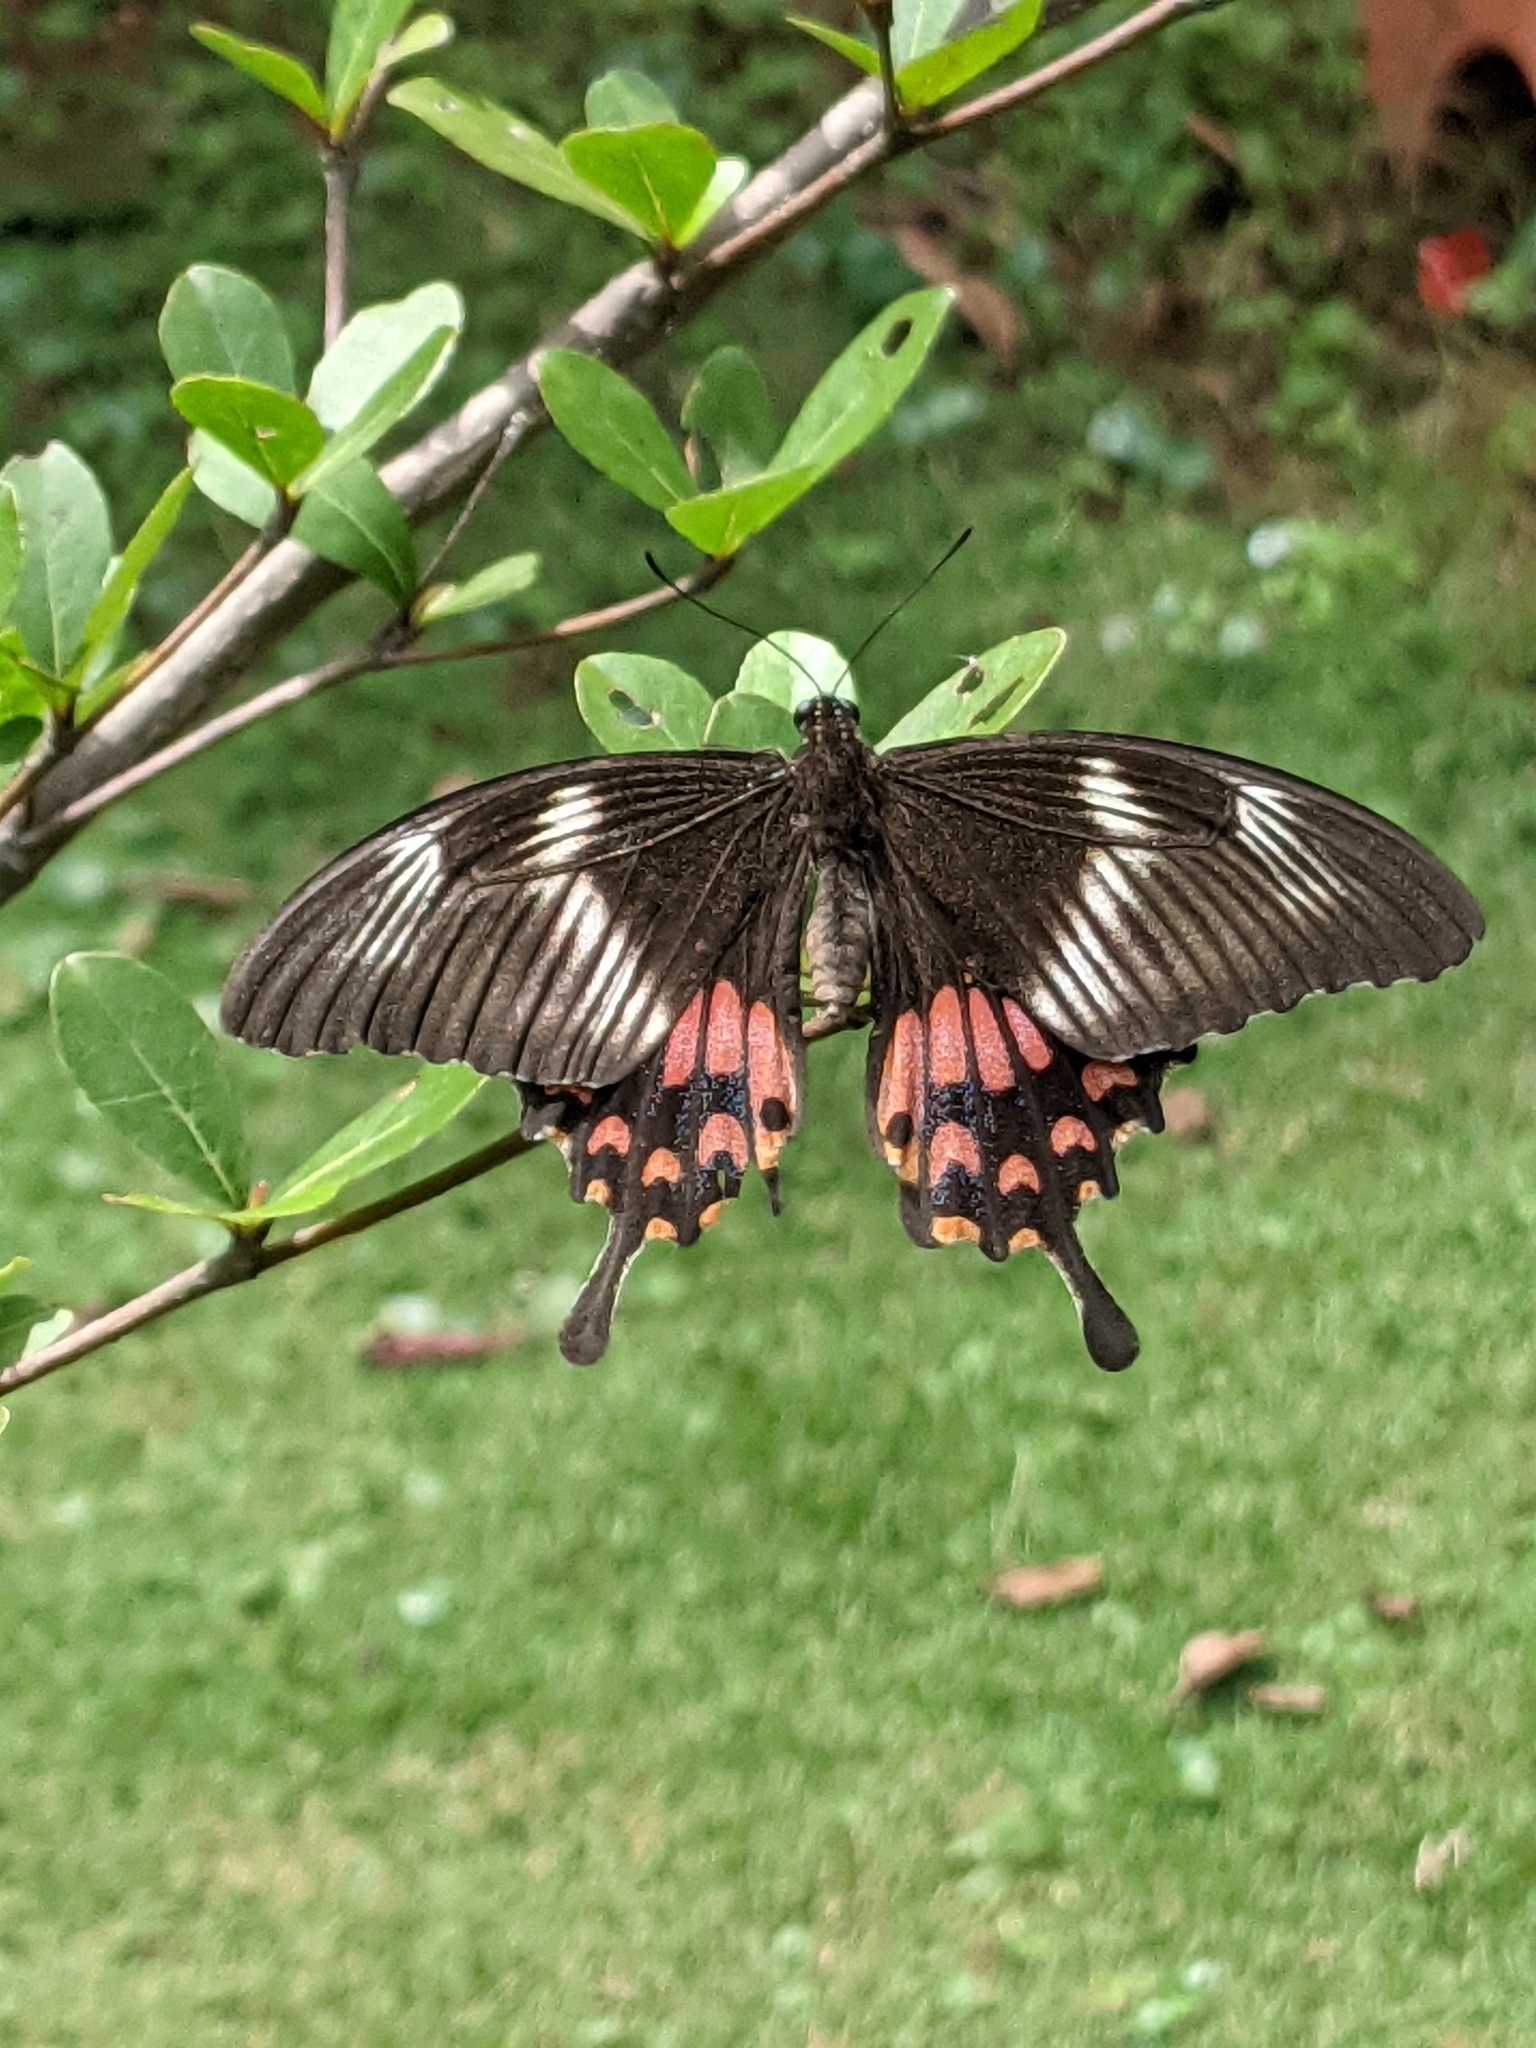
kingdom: Animalia
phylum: Arthropoda
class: Insecta
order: Lepidoptera
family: Papilionidae
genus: Papilio
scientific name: Papilio polytes
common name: Common mormon
